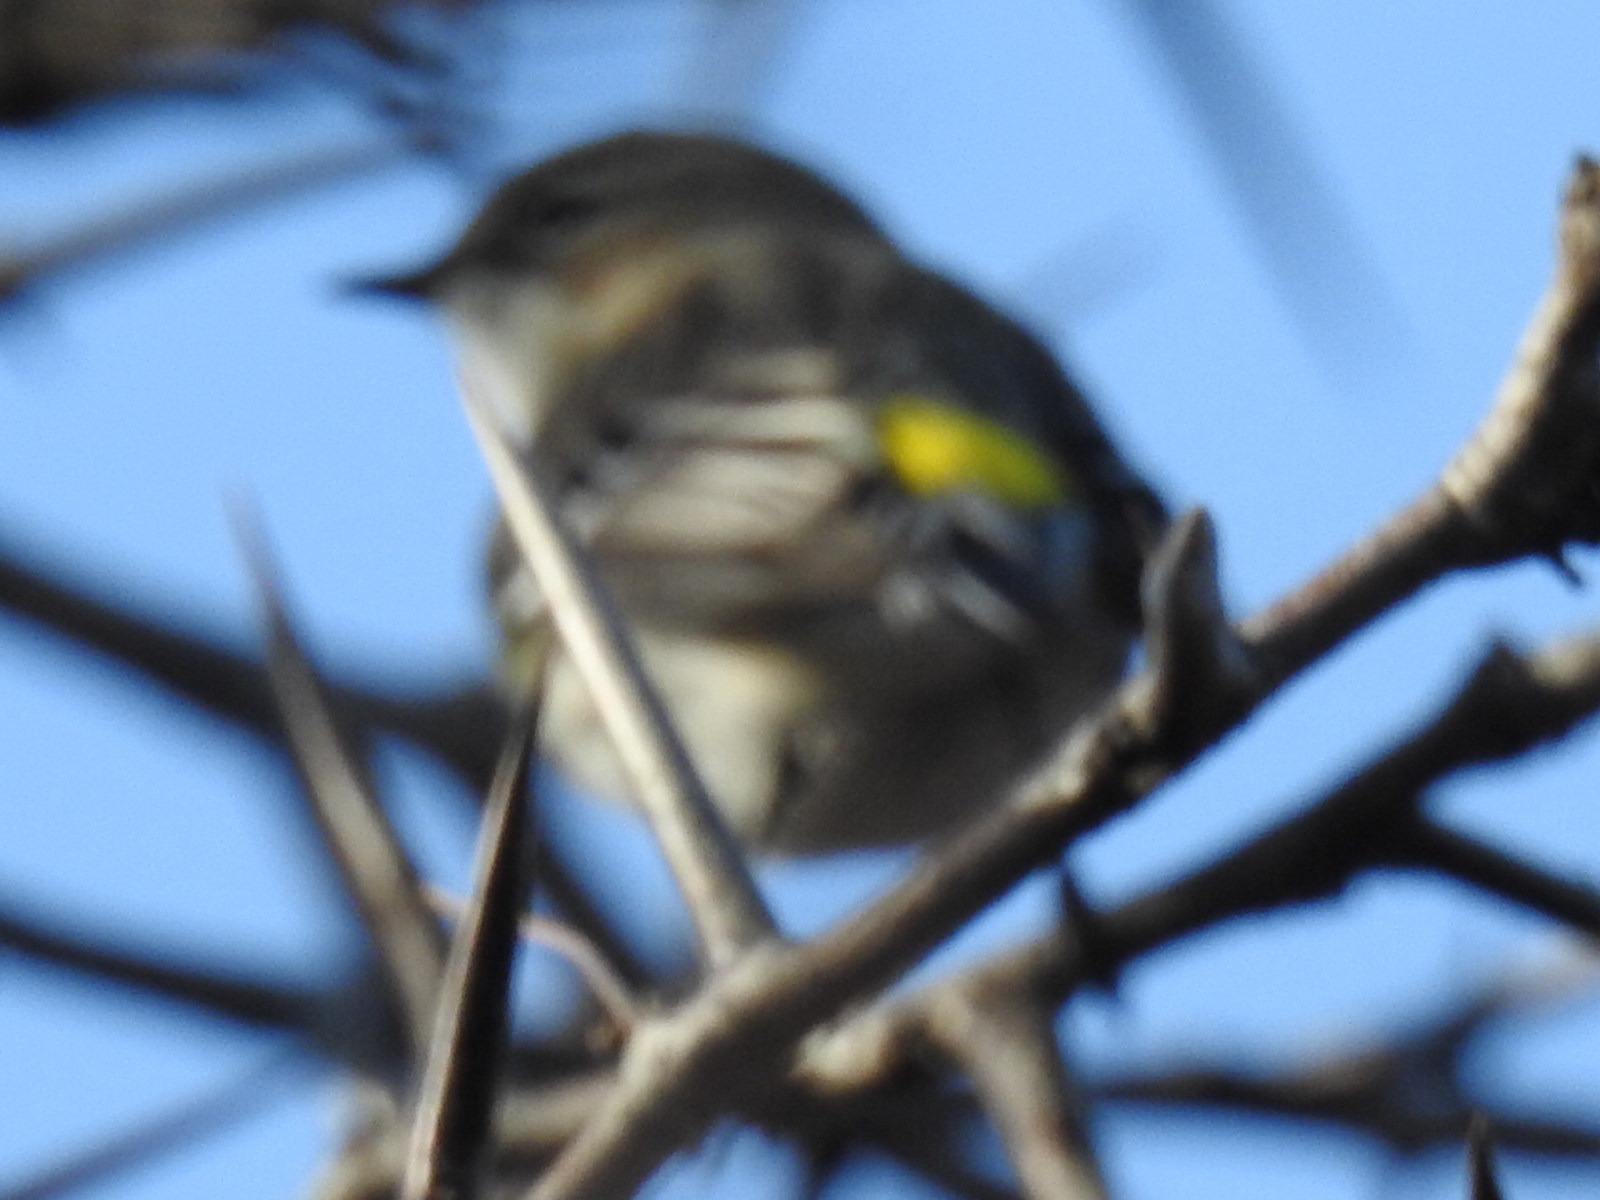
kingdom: Animalia
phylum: Chordata
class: Aves
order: Passeriformes
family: Parulidae
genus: Setophaga
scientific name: Setophaga coronata
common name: Myrtle warbler
